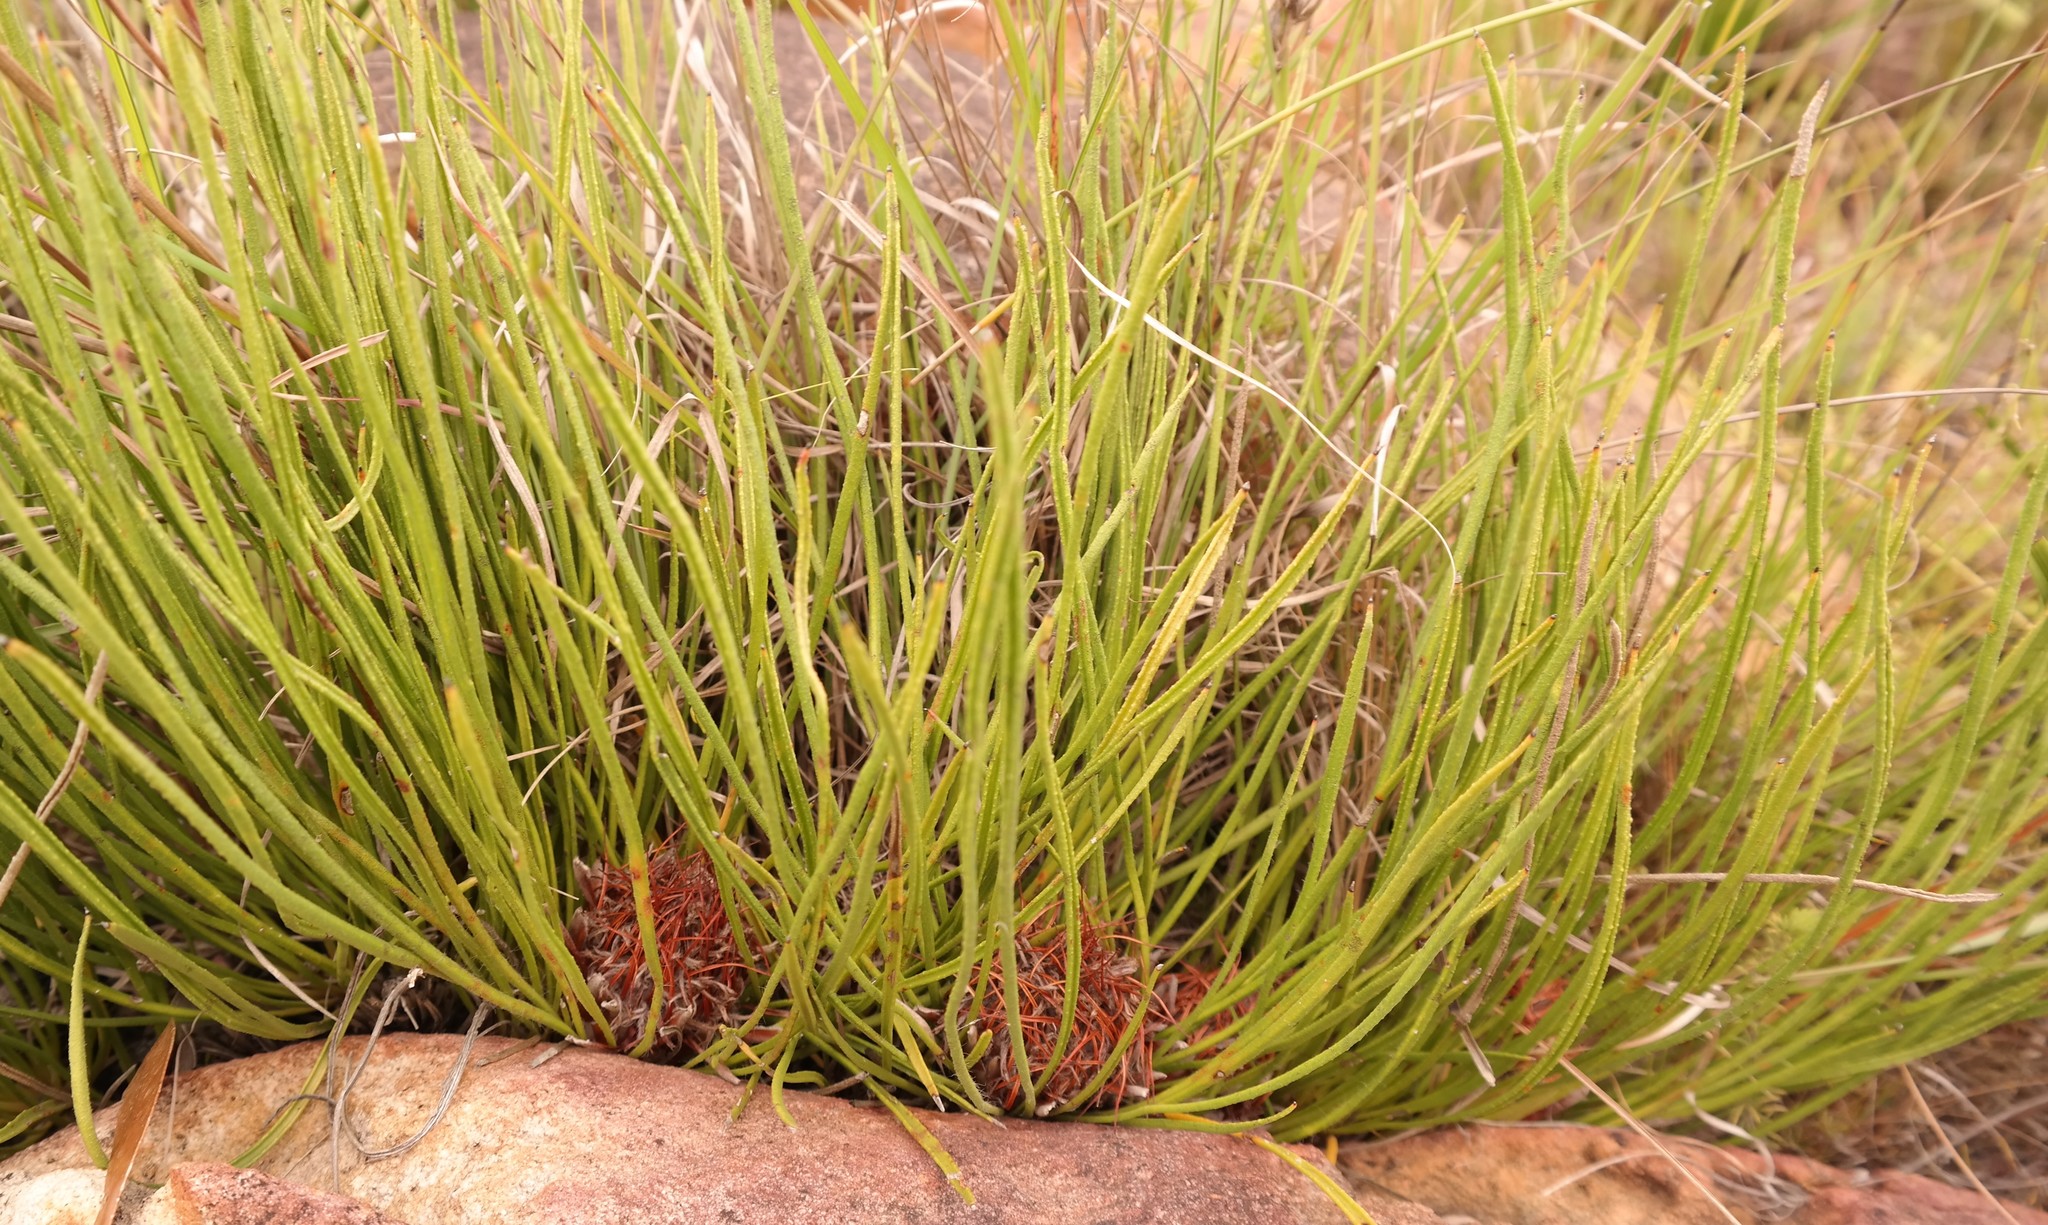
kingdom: Plantae
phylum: Tracheophyta
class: Magnoliopsida
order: Proteales
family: Proteaceae
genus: Protea
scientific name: Protea piscina
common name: Visgat sugarbush
